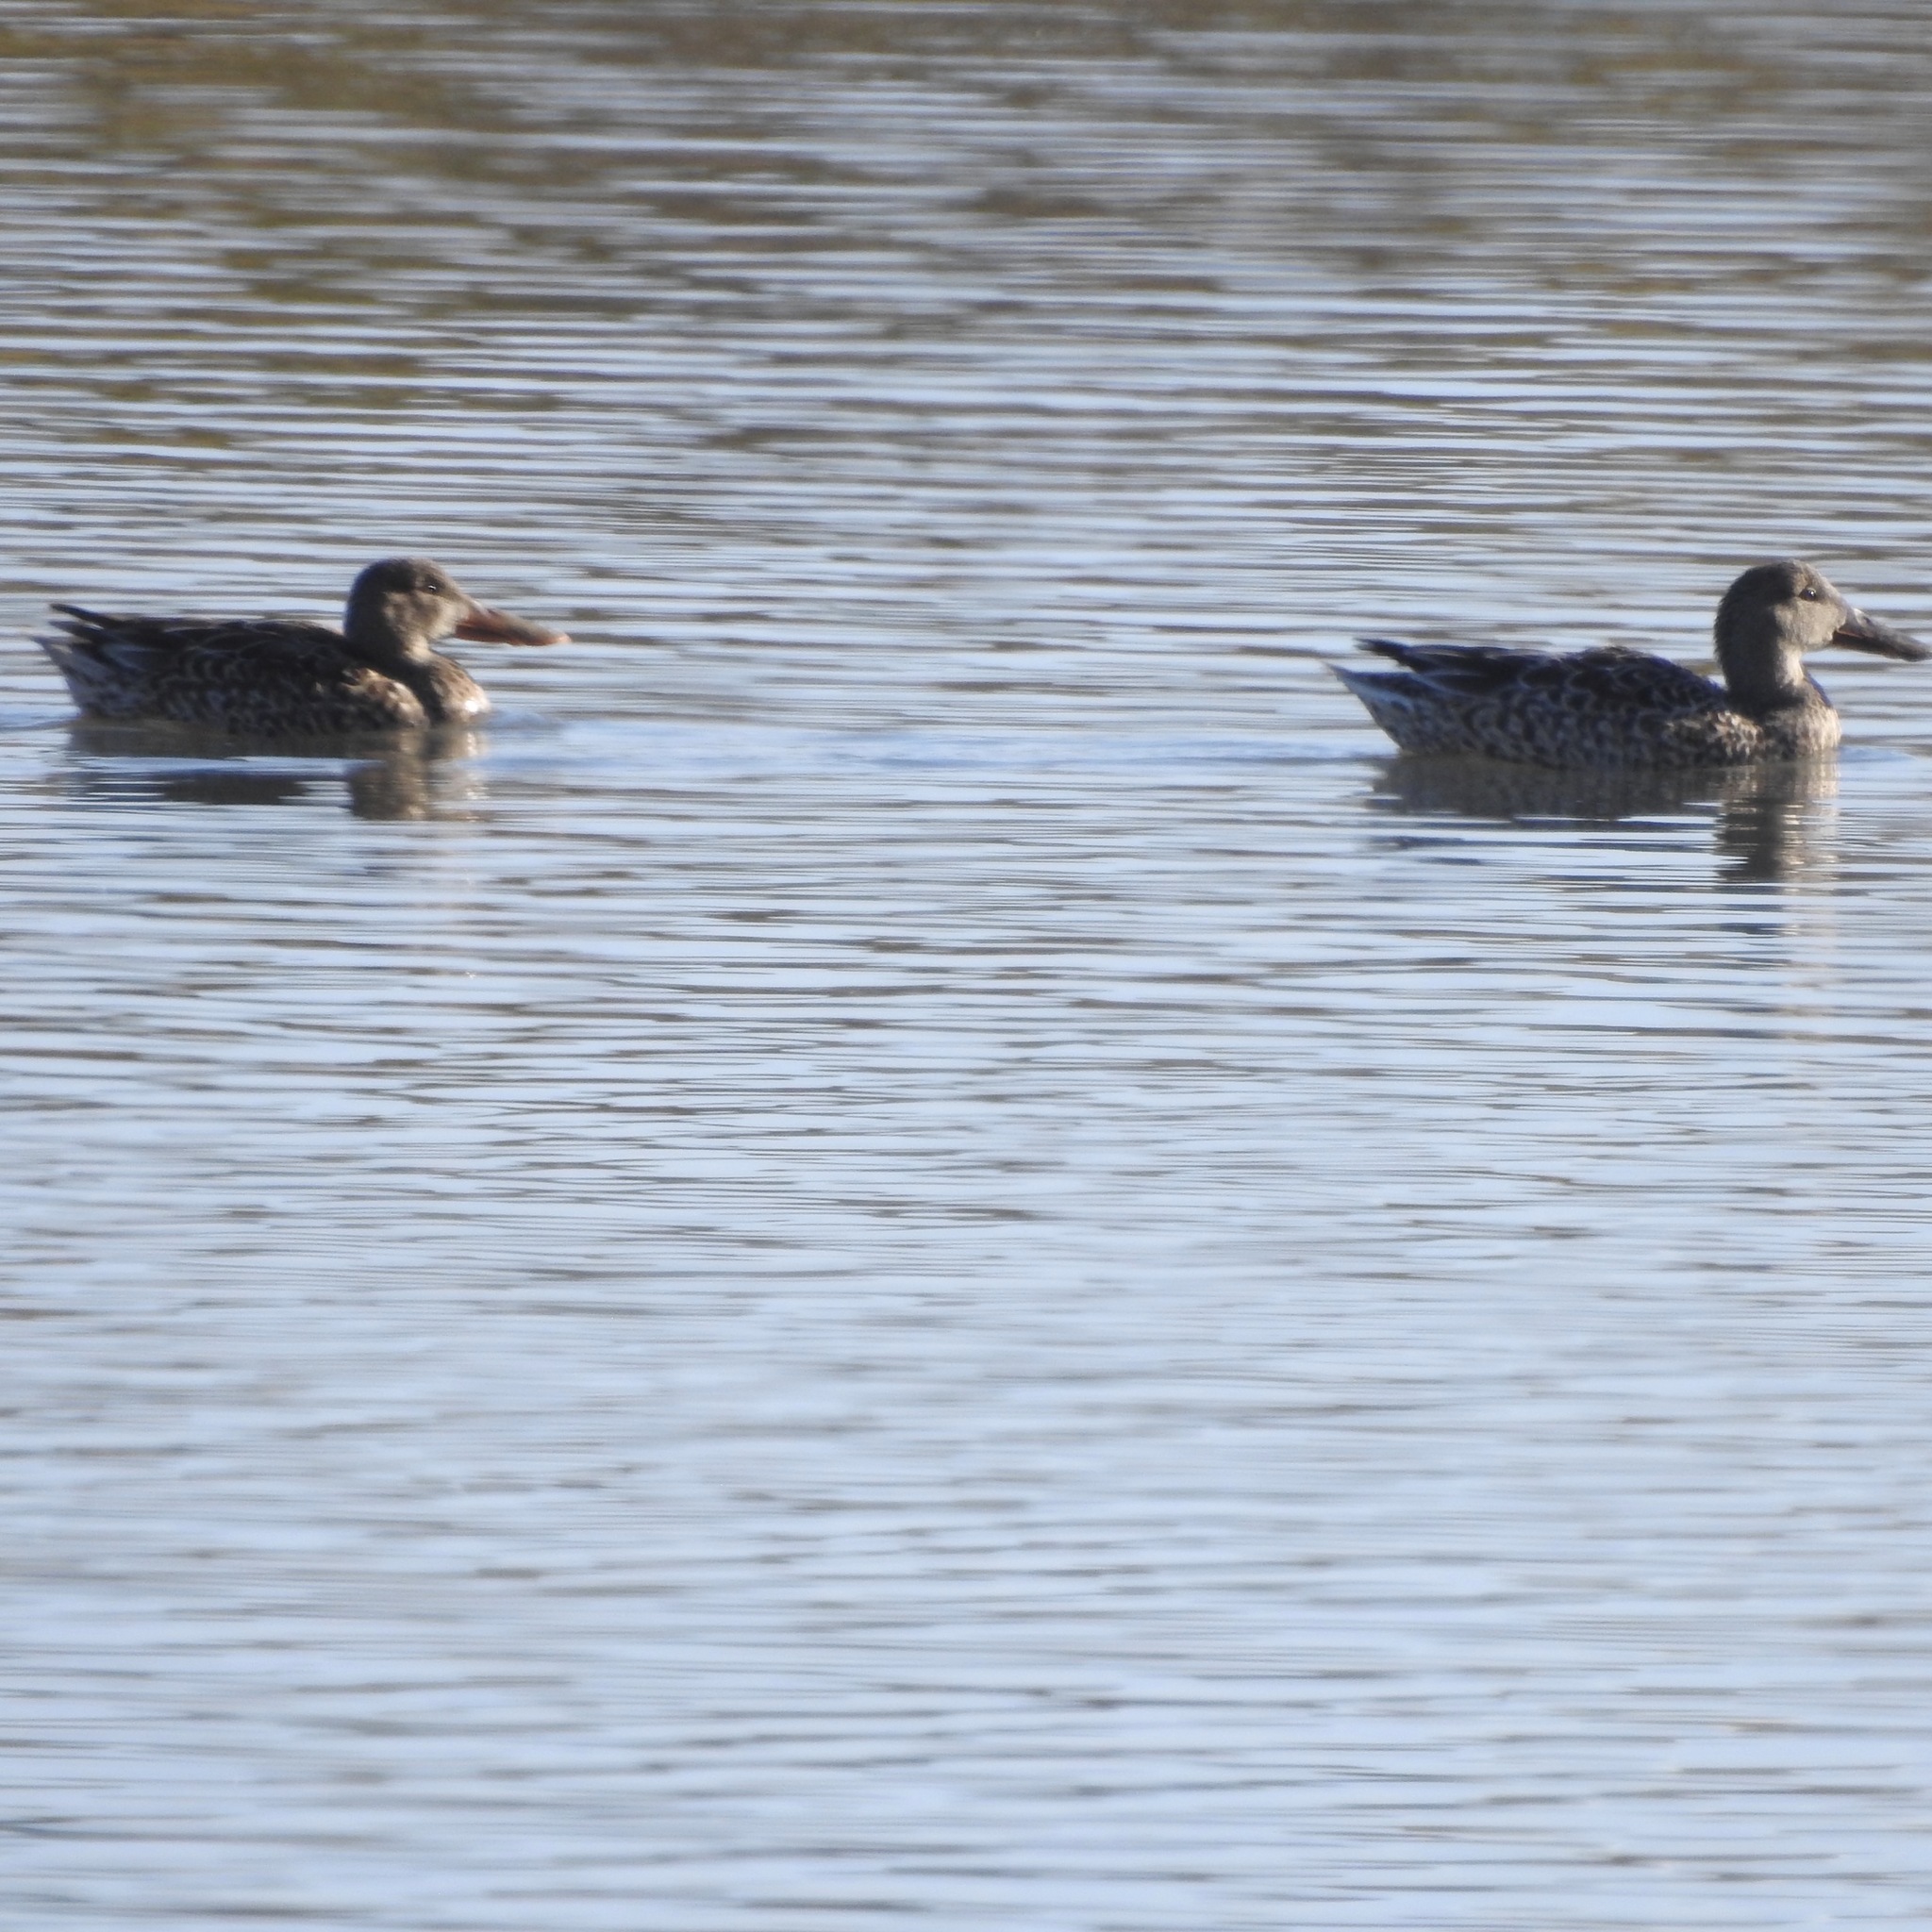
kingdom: Animalia
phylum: Chordata
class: Aves
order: Anseriformes
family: Anatidae
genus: Spatula
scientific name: Spatula clypeata
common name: Northern shoveler
